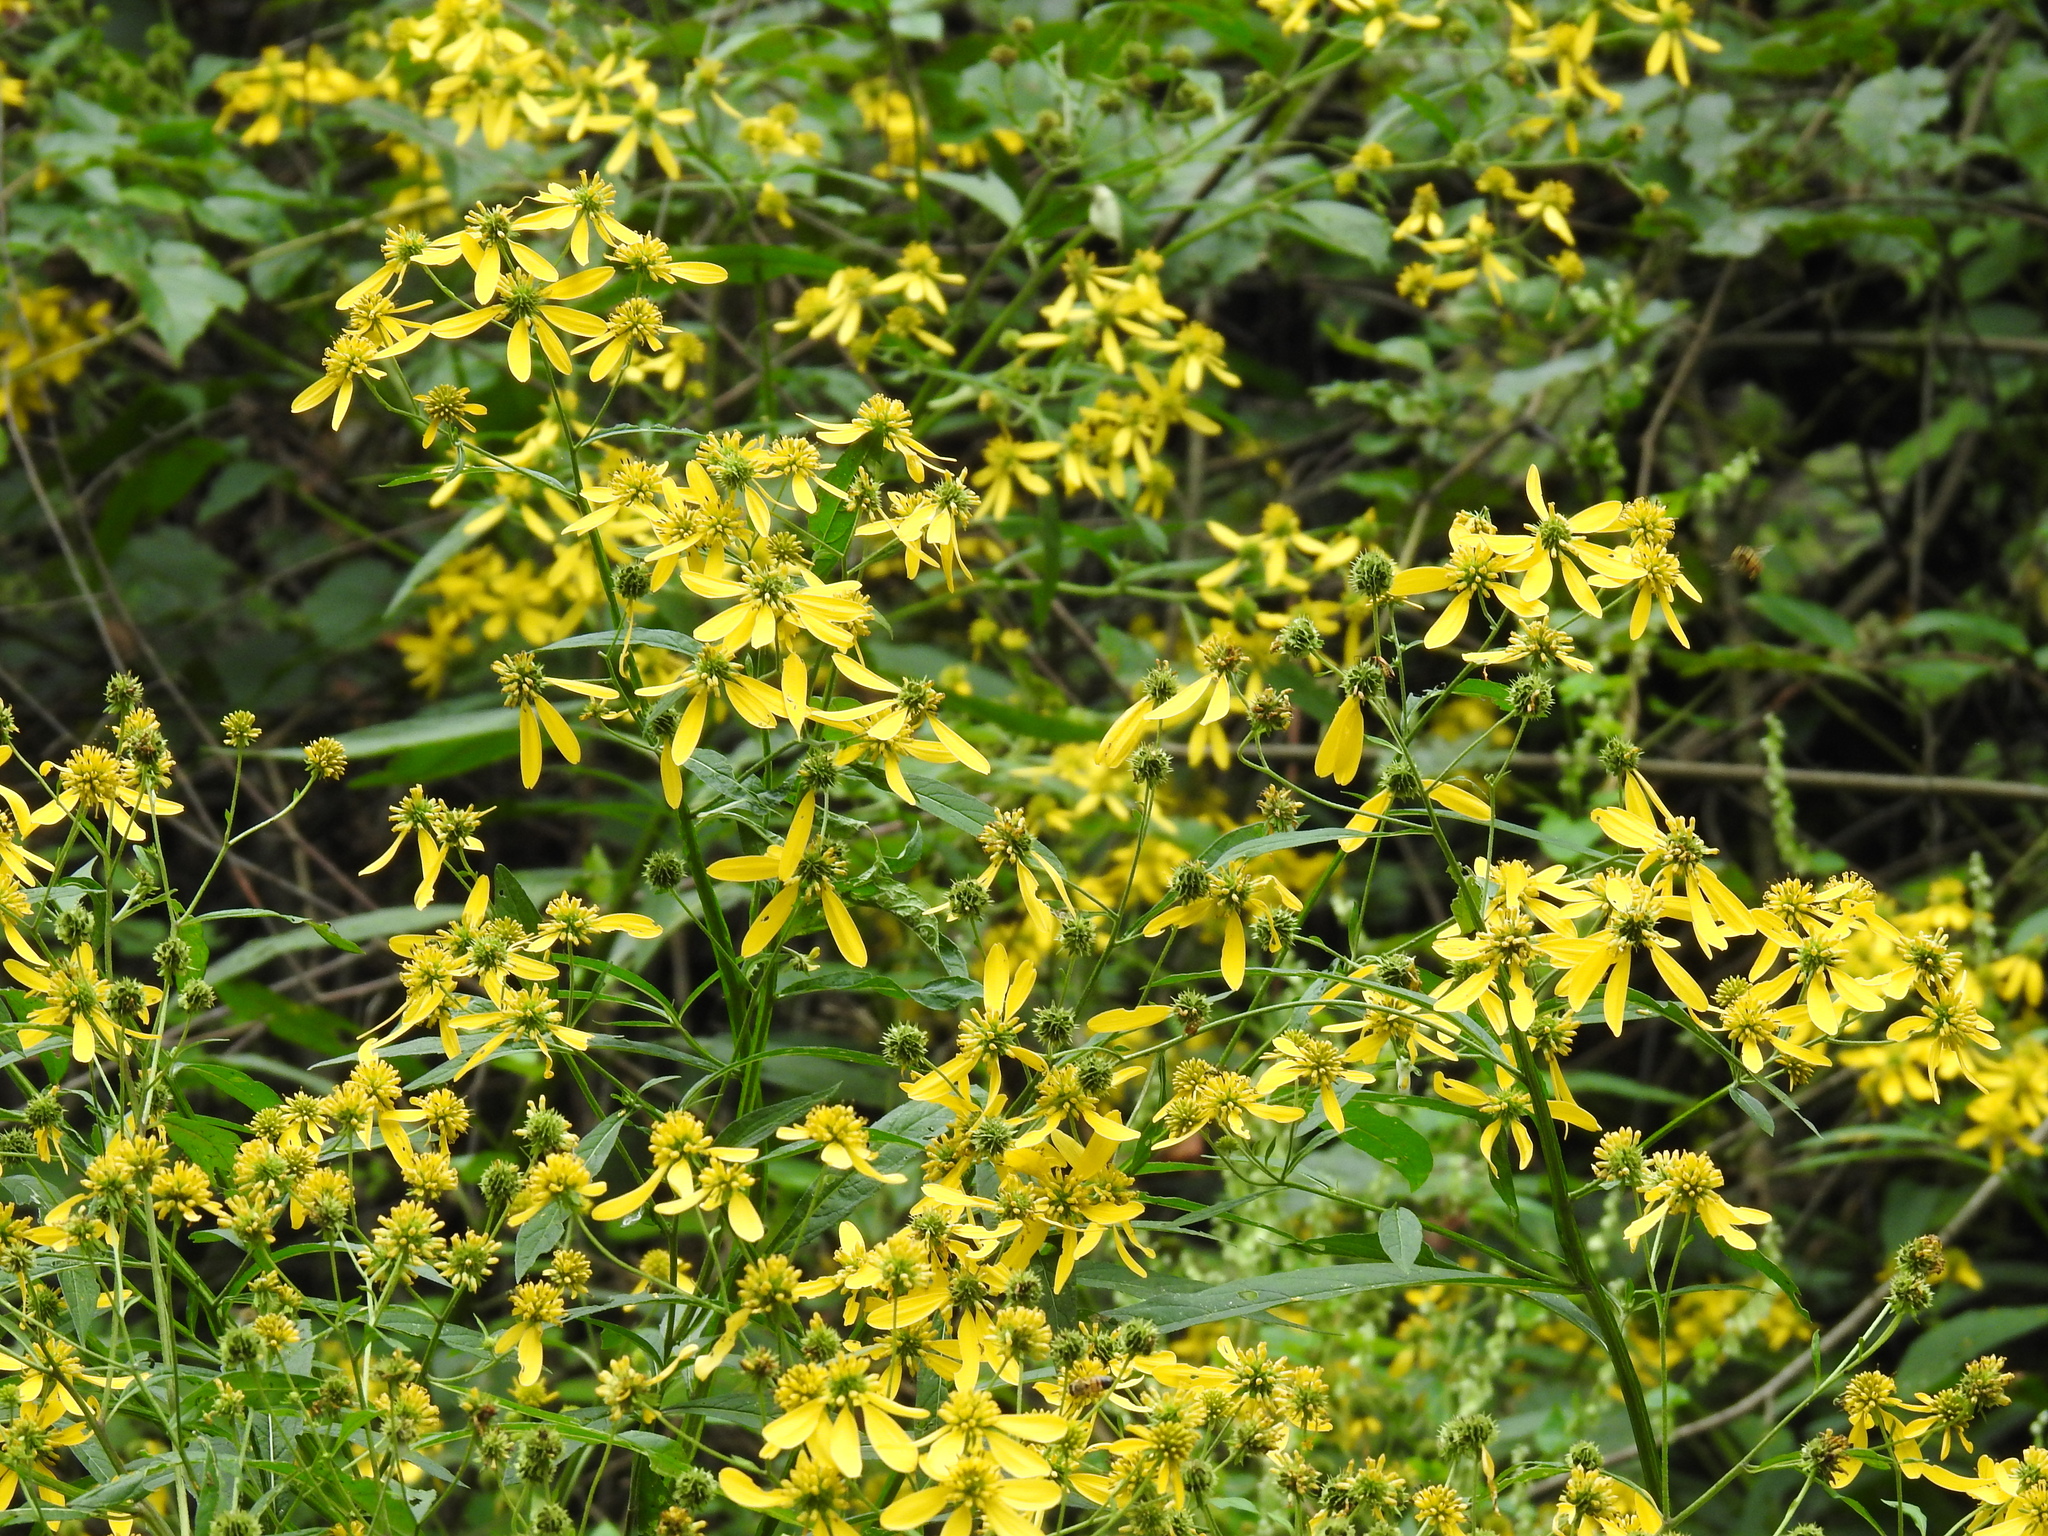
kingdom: Plantae
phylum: Tracheophyta
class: Magnoliopsida
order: Asterales
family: Asteraceae
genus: Verbesina
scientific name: Verbesina alternifolia
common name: Wingstem
